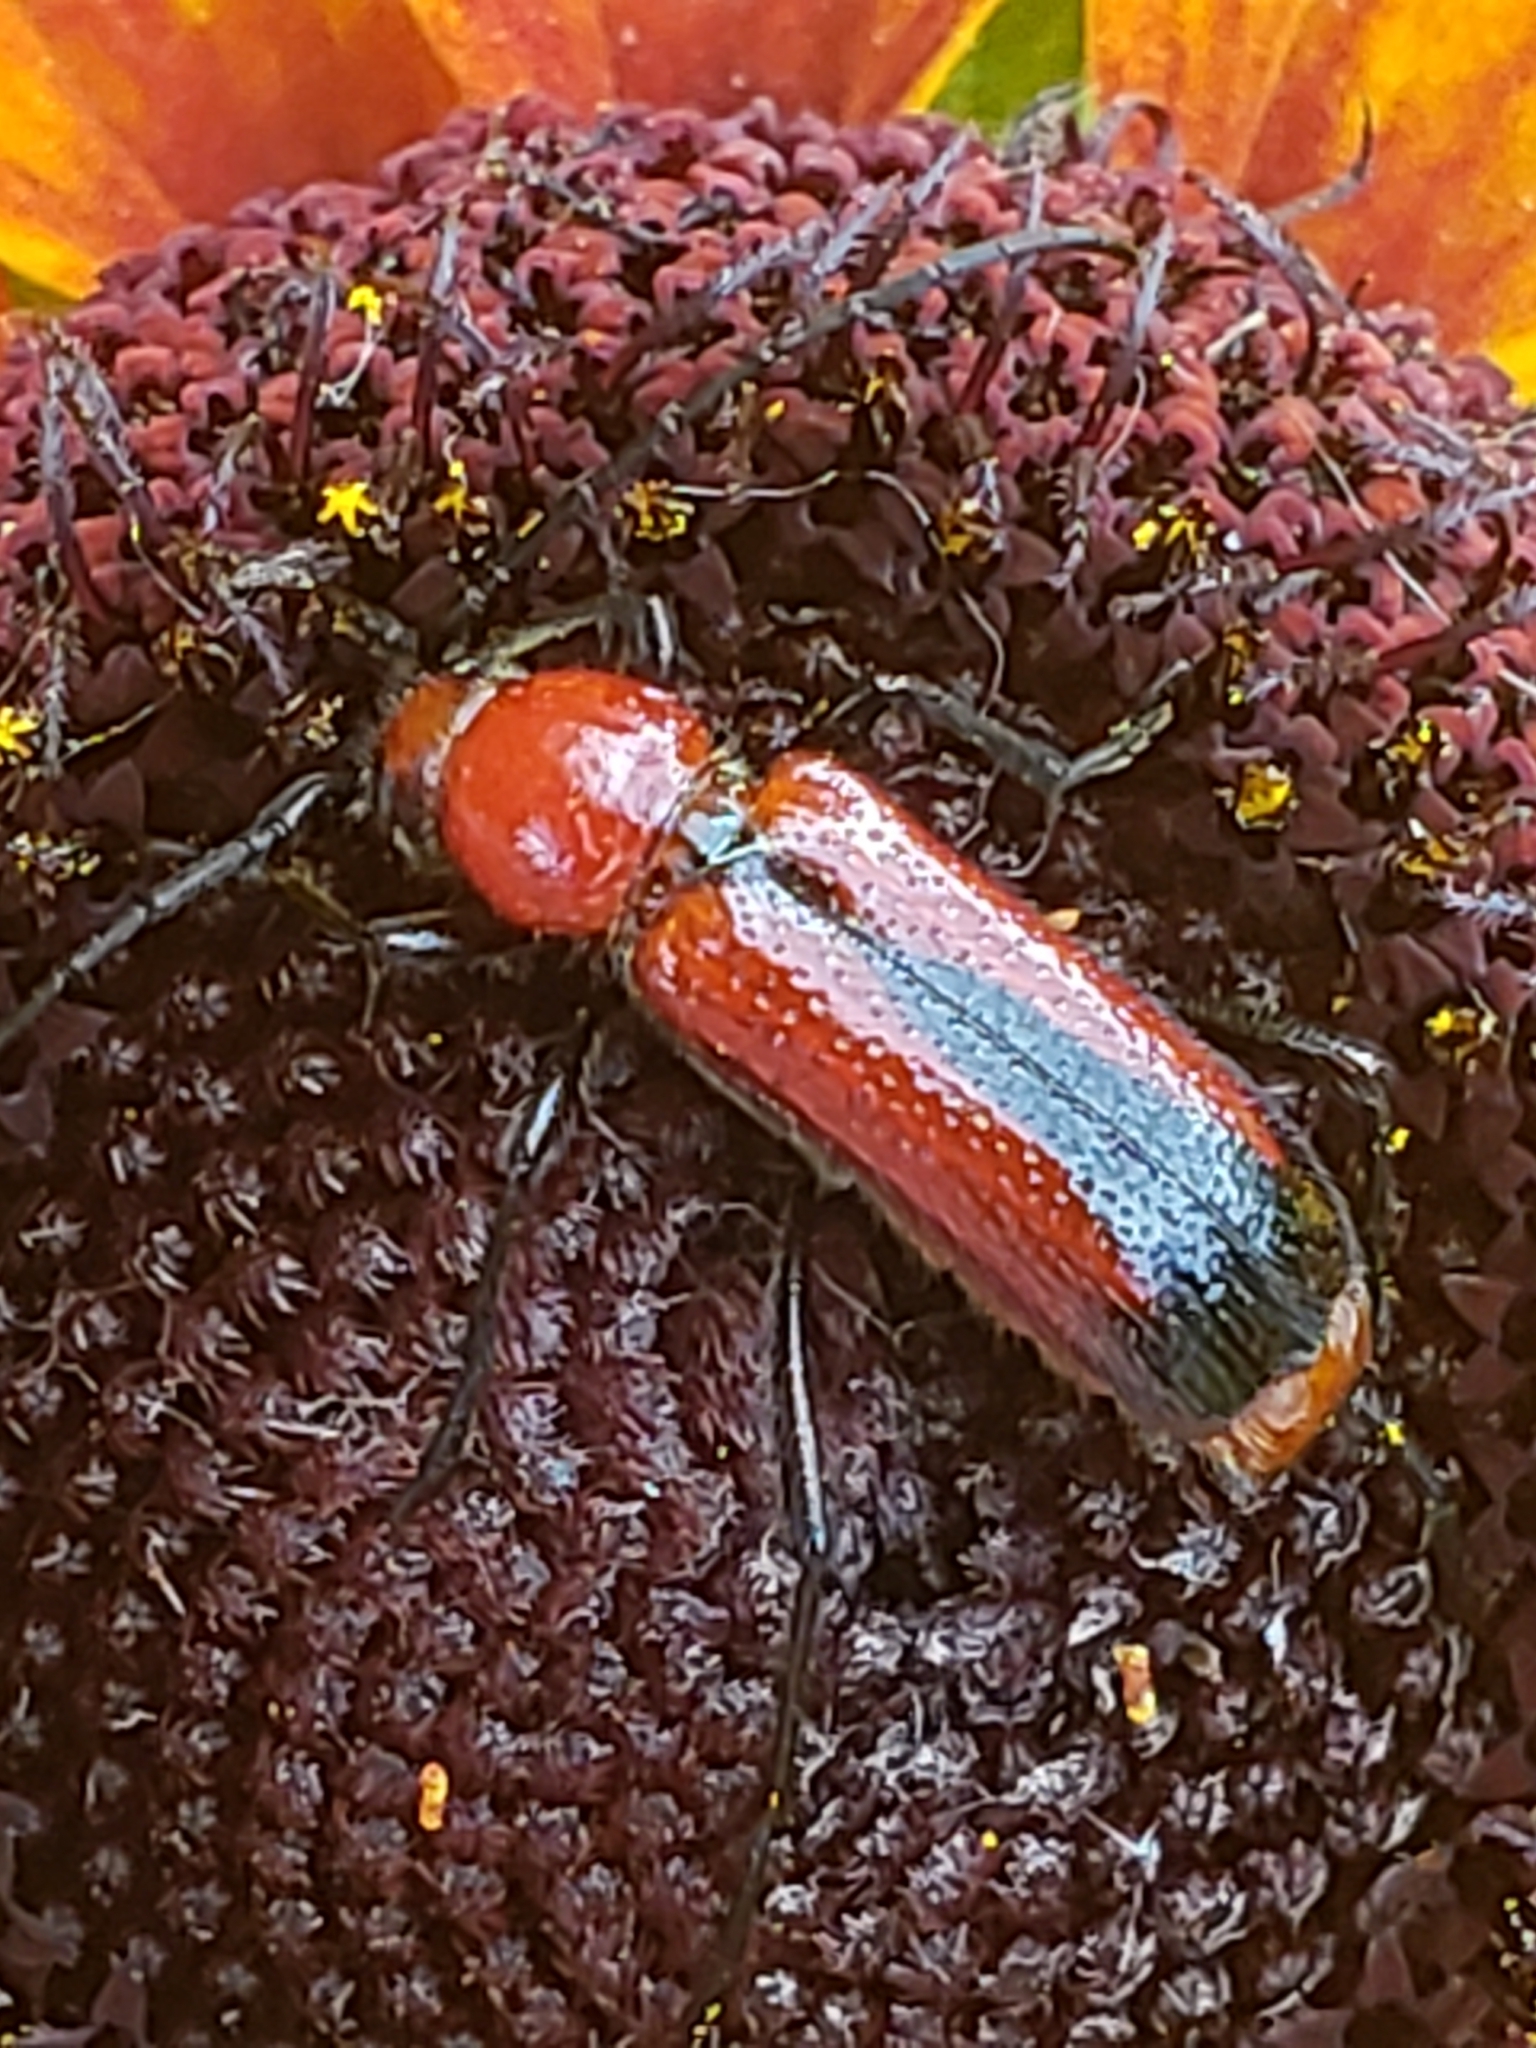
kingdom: Animalia
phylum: Arthropoda
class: Insecta
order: Coleoptera
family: Cerambycidae
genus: Batyle
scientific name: Batyle suturalis
